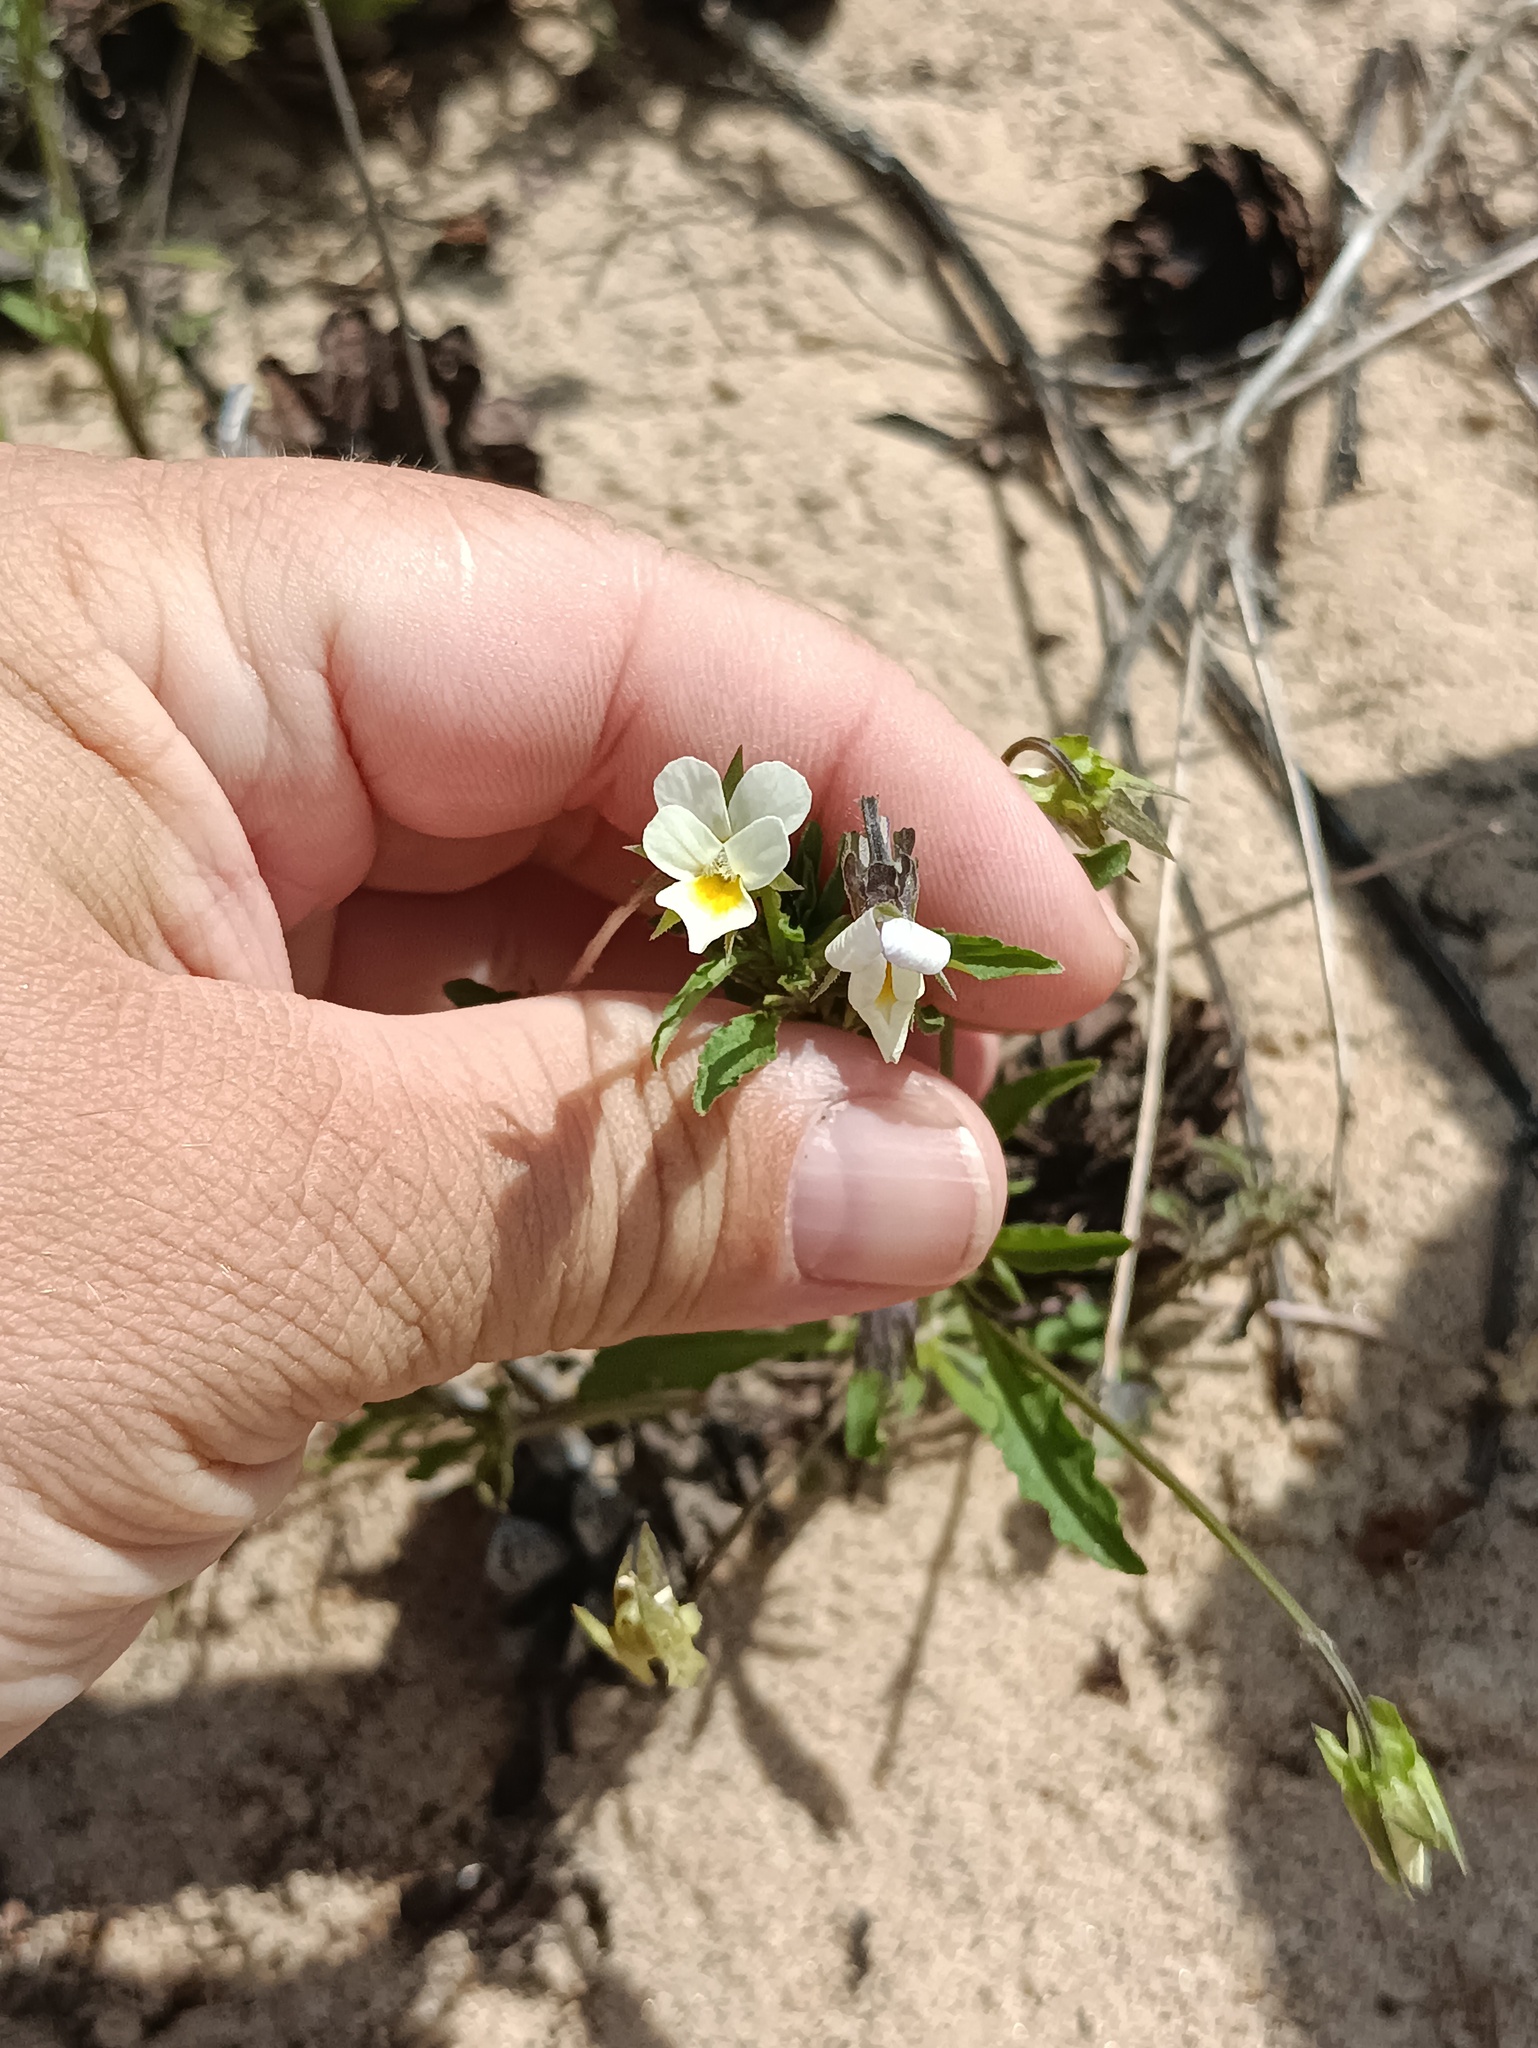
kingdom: Plantae
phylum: Tracheophyta
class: Magnoliopsida
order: Malpighiales
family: Violaceae
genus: Viola
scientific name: Viola arvensis
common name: Field pansy
